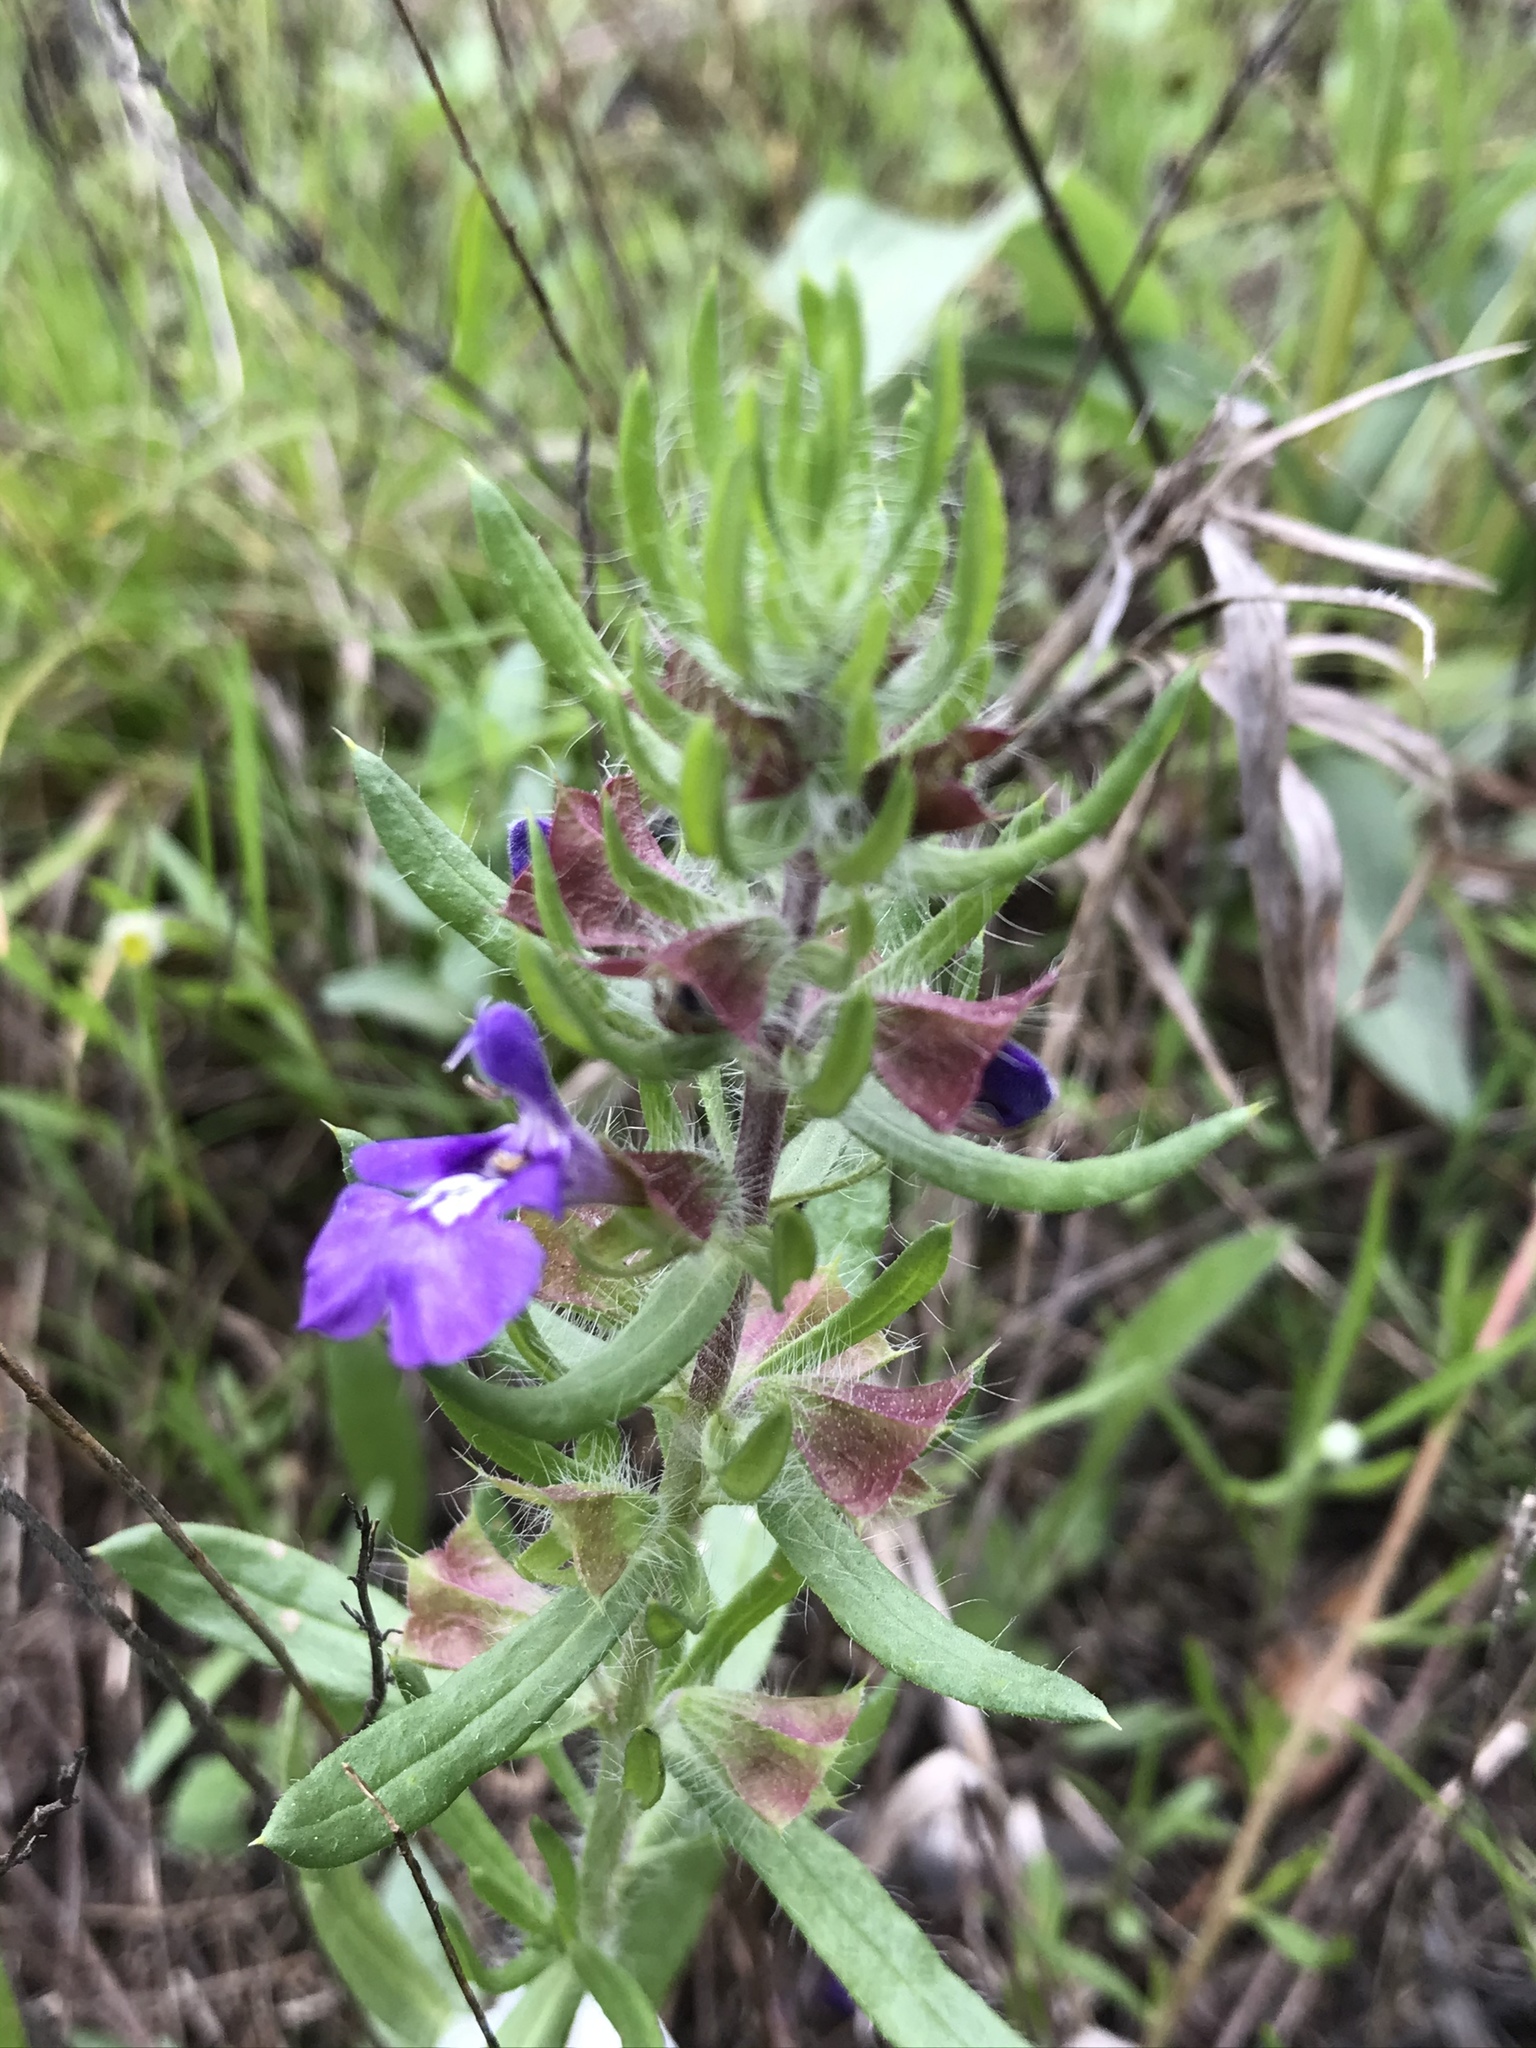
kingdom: Plantae
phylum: Tracheophyta
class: Magnoliopsida
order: Lamiales
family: Lamiaceae
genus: Salvia
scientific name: Salvia texana
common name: Texas sage
